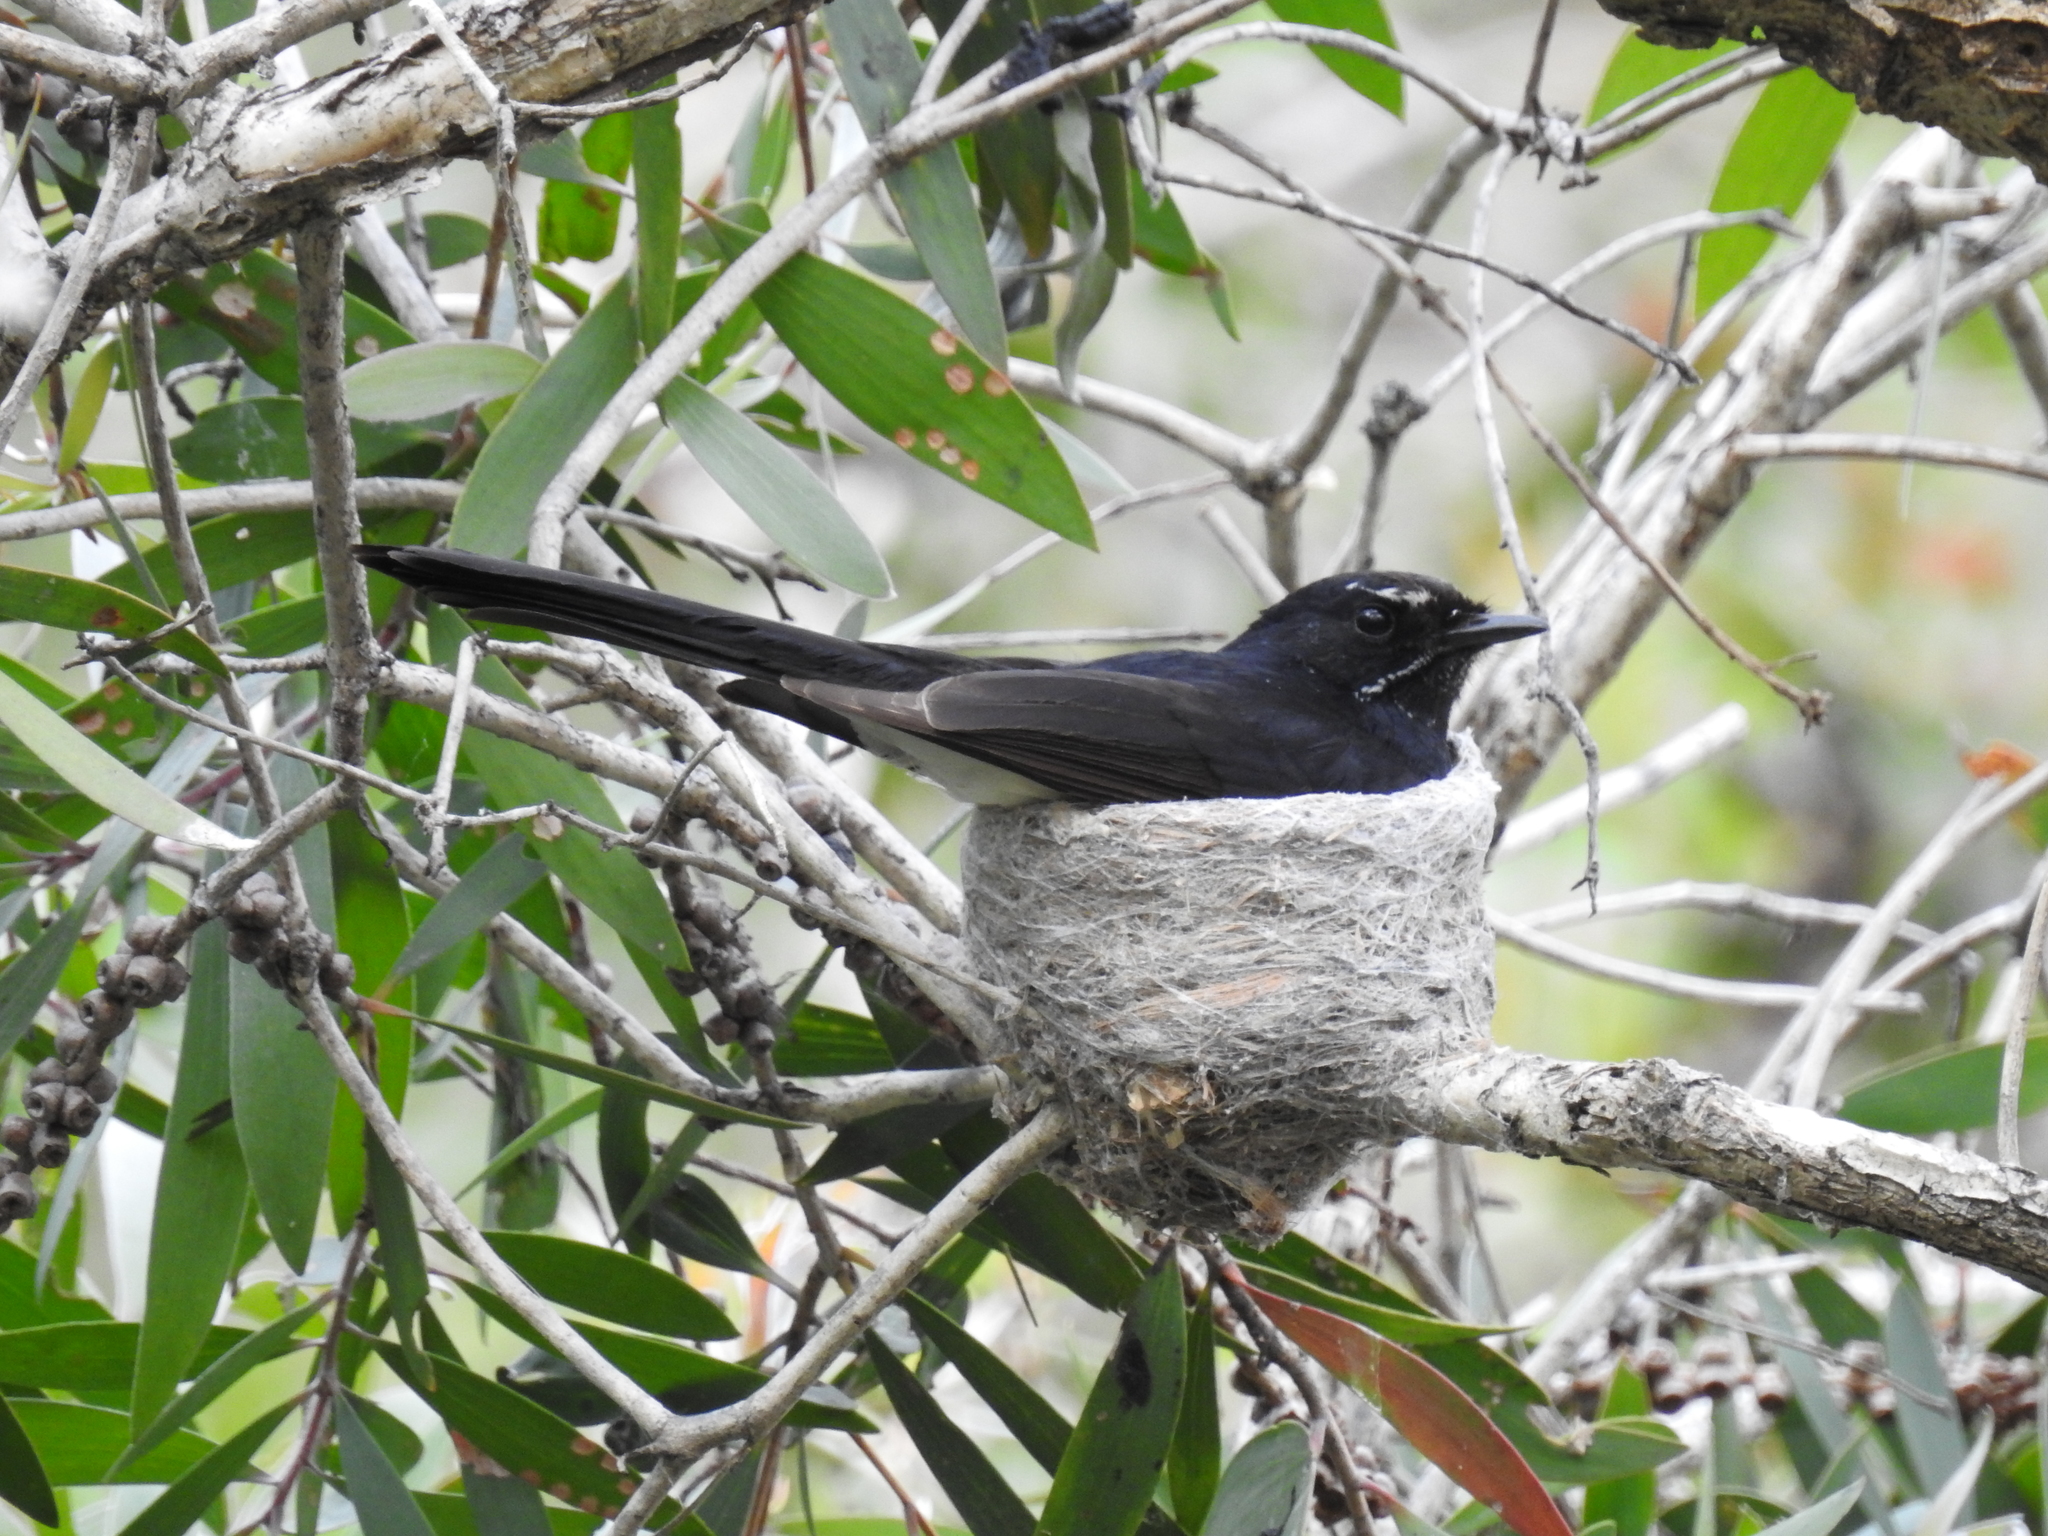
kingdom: Animalia
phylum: Chordata
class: Aves
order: Passeriformes
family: Rhipiduridae
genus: Rhipidura
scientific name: Rhipidura leucophrys
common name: Willie wagtail
